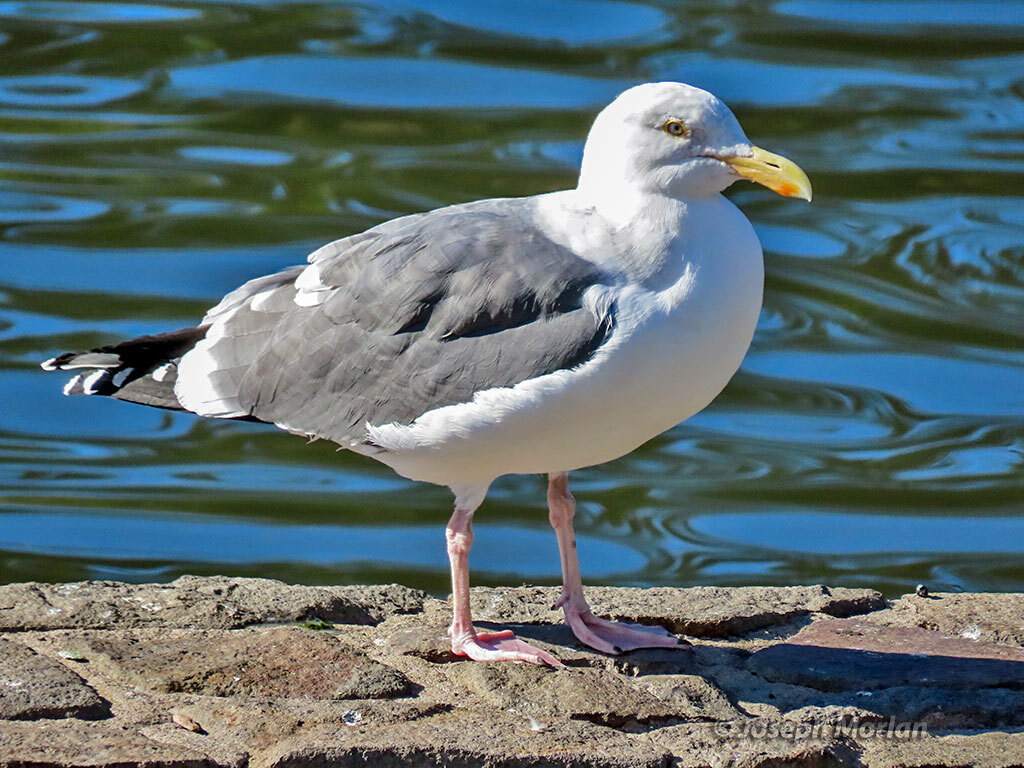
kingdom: Animalia
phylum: Chordata
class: Aves
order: Charadriiformes
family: Laridae
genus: Larus
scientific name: Larus occidentalis
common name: Western gull
